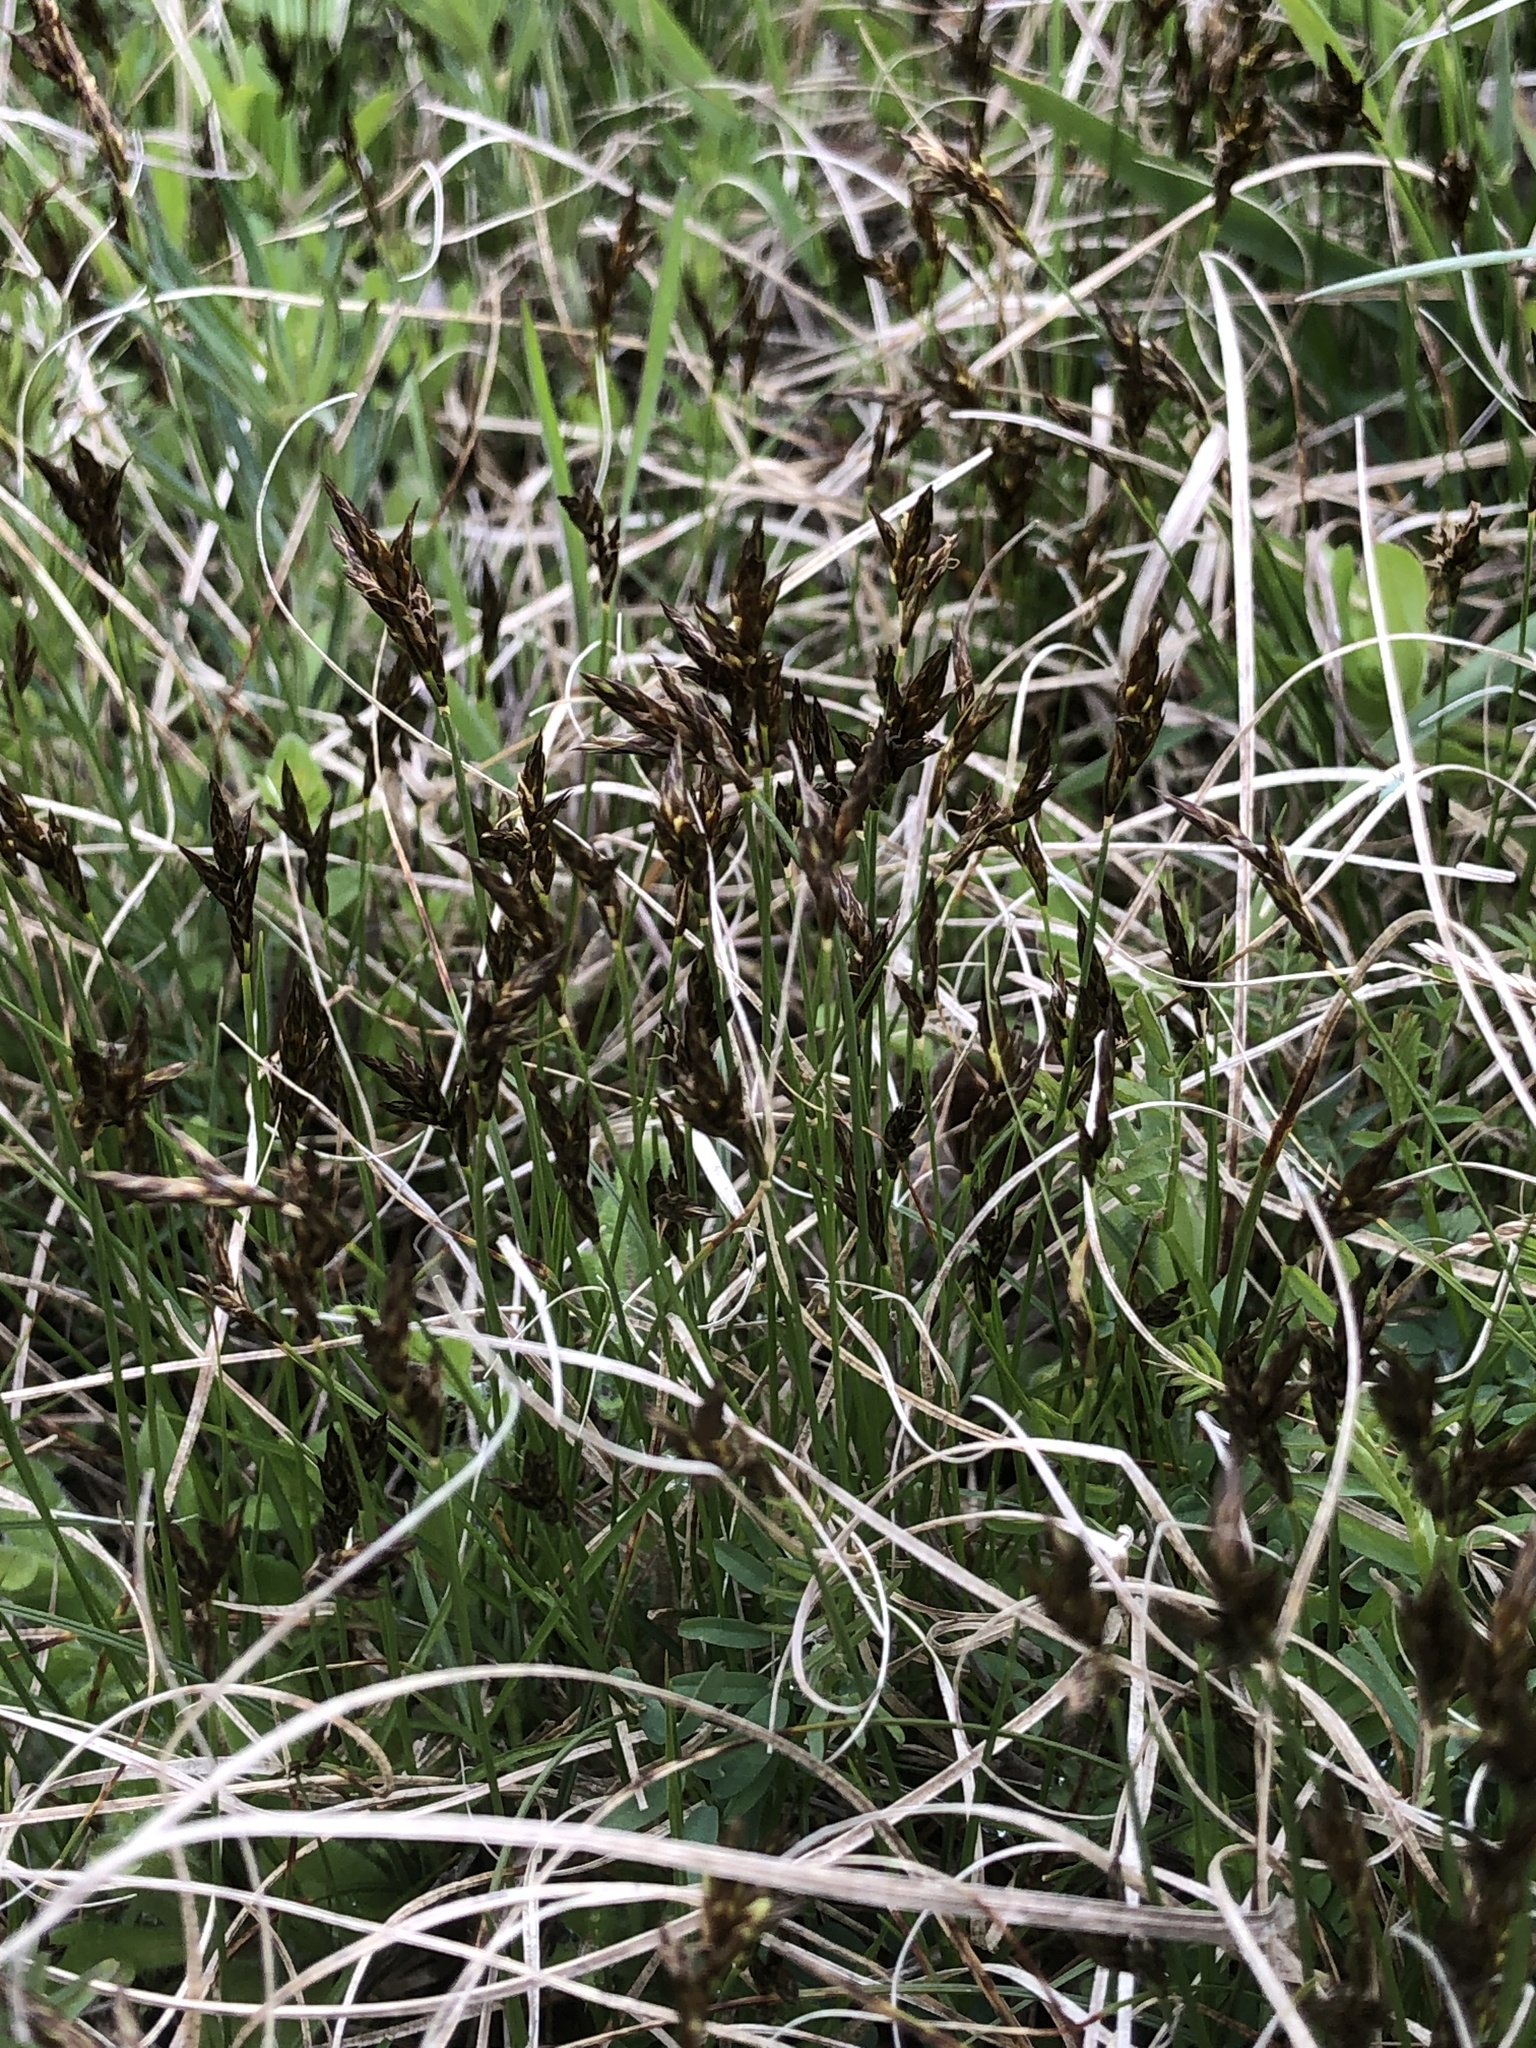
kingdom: Plantae
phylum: Tracheophyta
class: Liliopsida
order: Poales
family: Cyperaceae
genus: Carex
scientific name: Carex stenophylla
